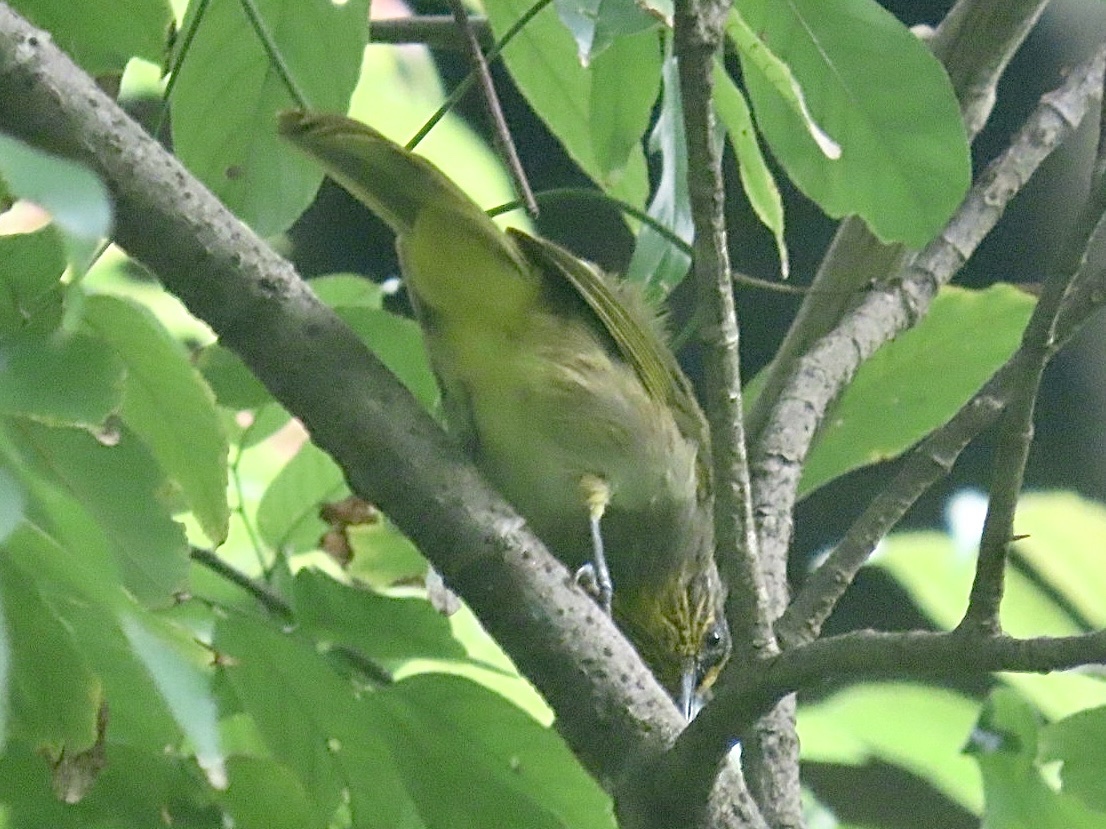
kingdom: Animalia
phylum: Chordata
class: Aves
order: Passeriformes
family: Pycnonotidae
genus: Pycnonotus
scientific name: Pycnonotus finlaysoni
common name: Stripe-throated bulbul
